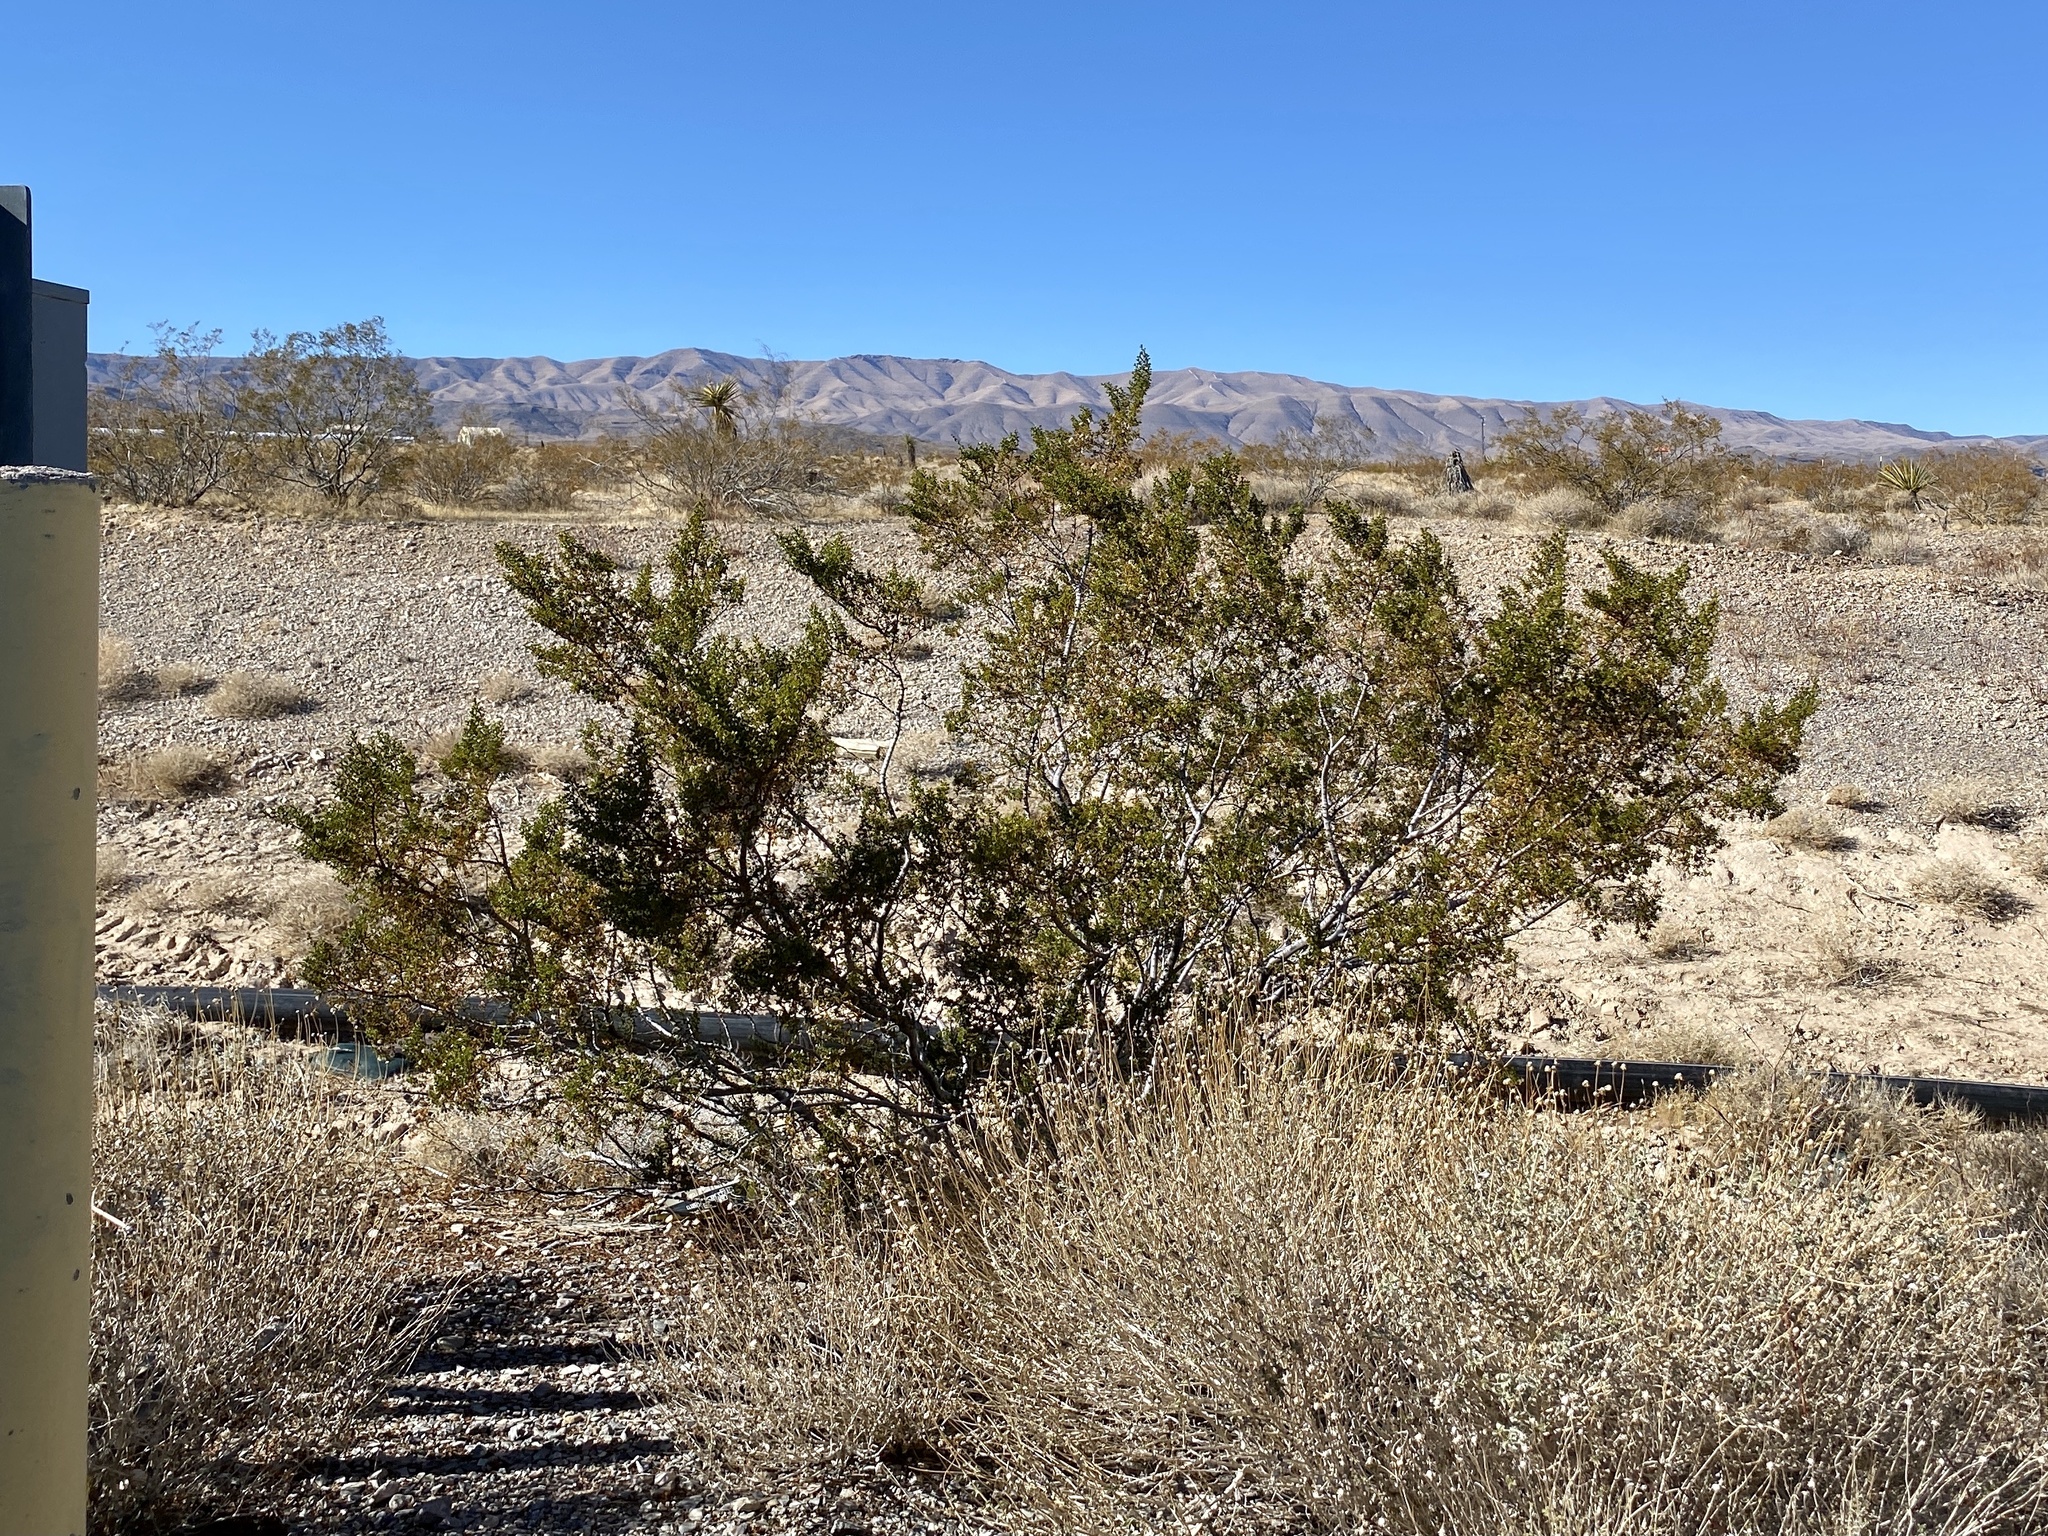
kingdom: Plantae
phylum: Tracheophyta
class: Magnoliopsida
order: Zygophyllales
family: Zygophyllaceae
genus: Larrea
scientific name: Larrea tridentata
